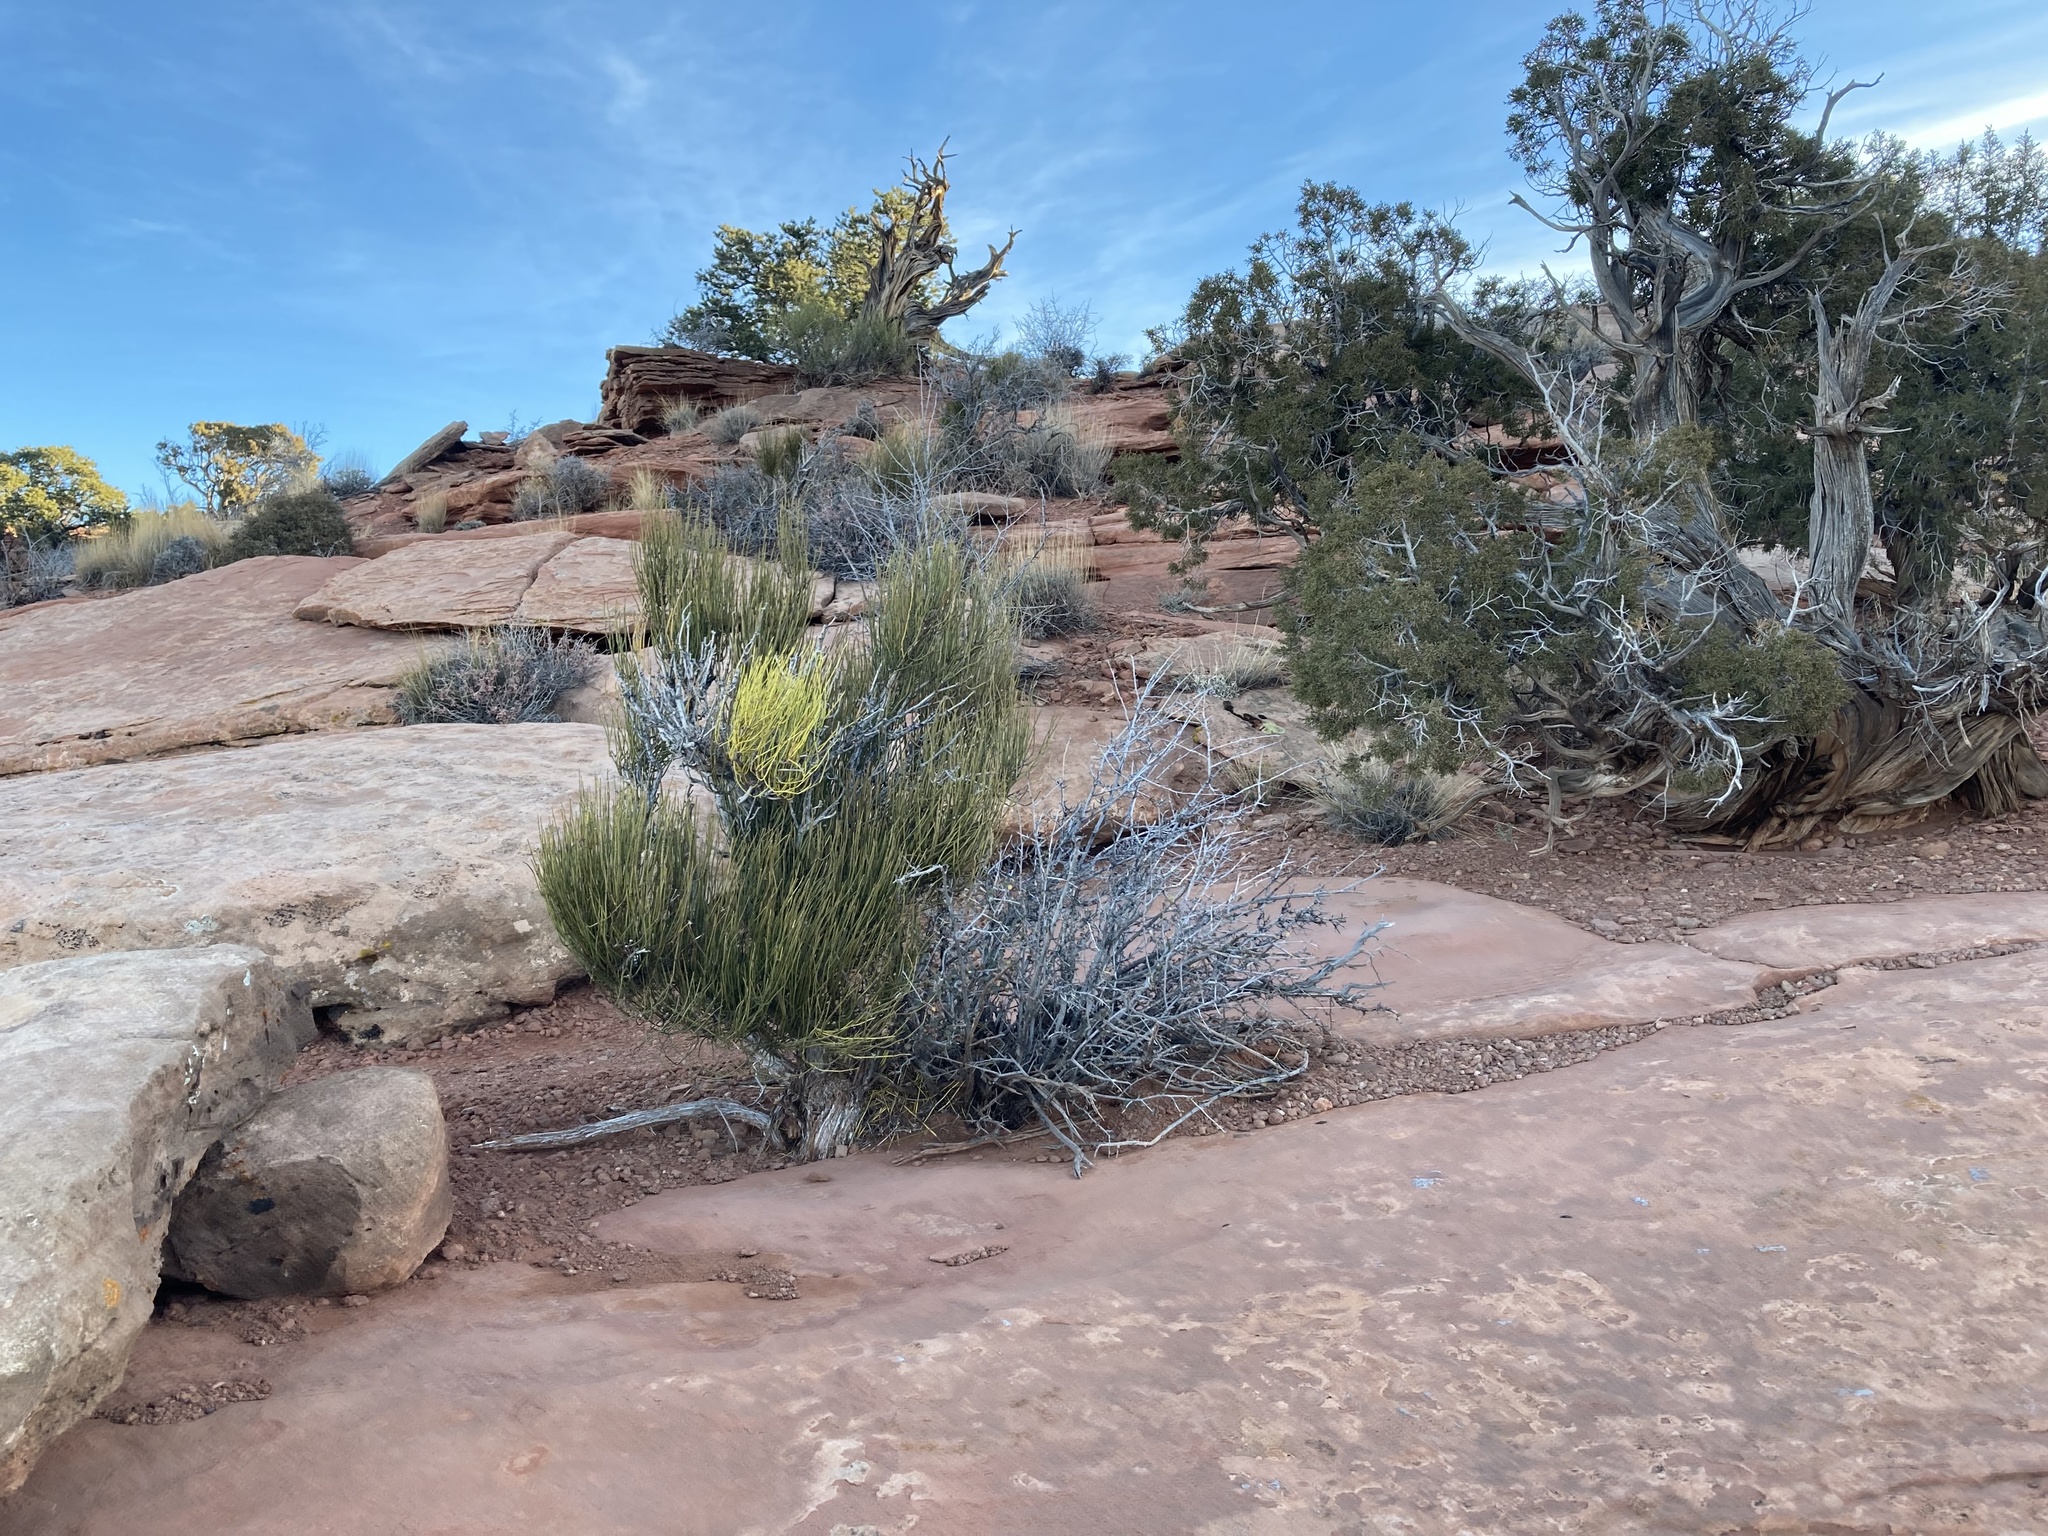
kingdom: Plantae
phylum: Tracheophyta
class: Gnetopsida
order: Ephedrales
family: Ephedraceae
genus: Ephedra
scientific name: Ephedra viridis
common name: Green ephedra
